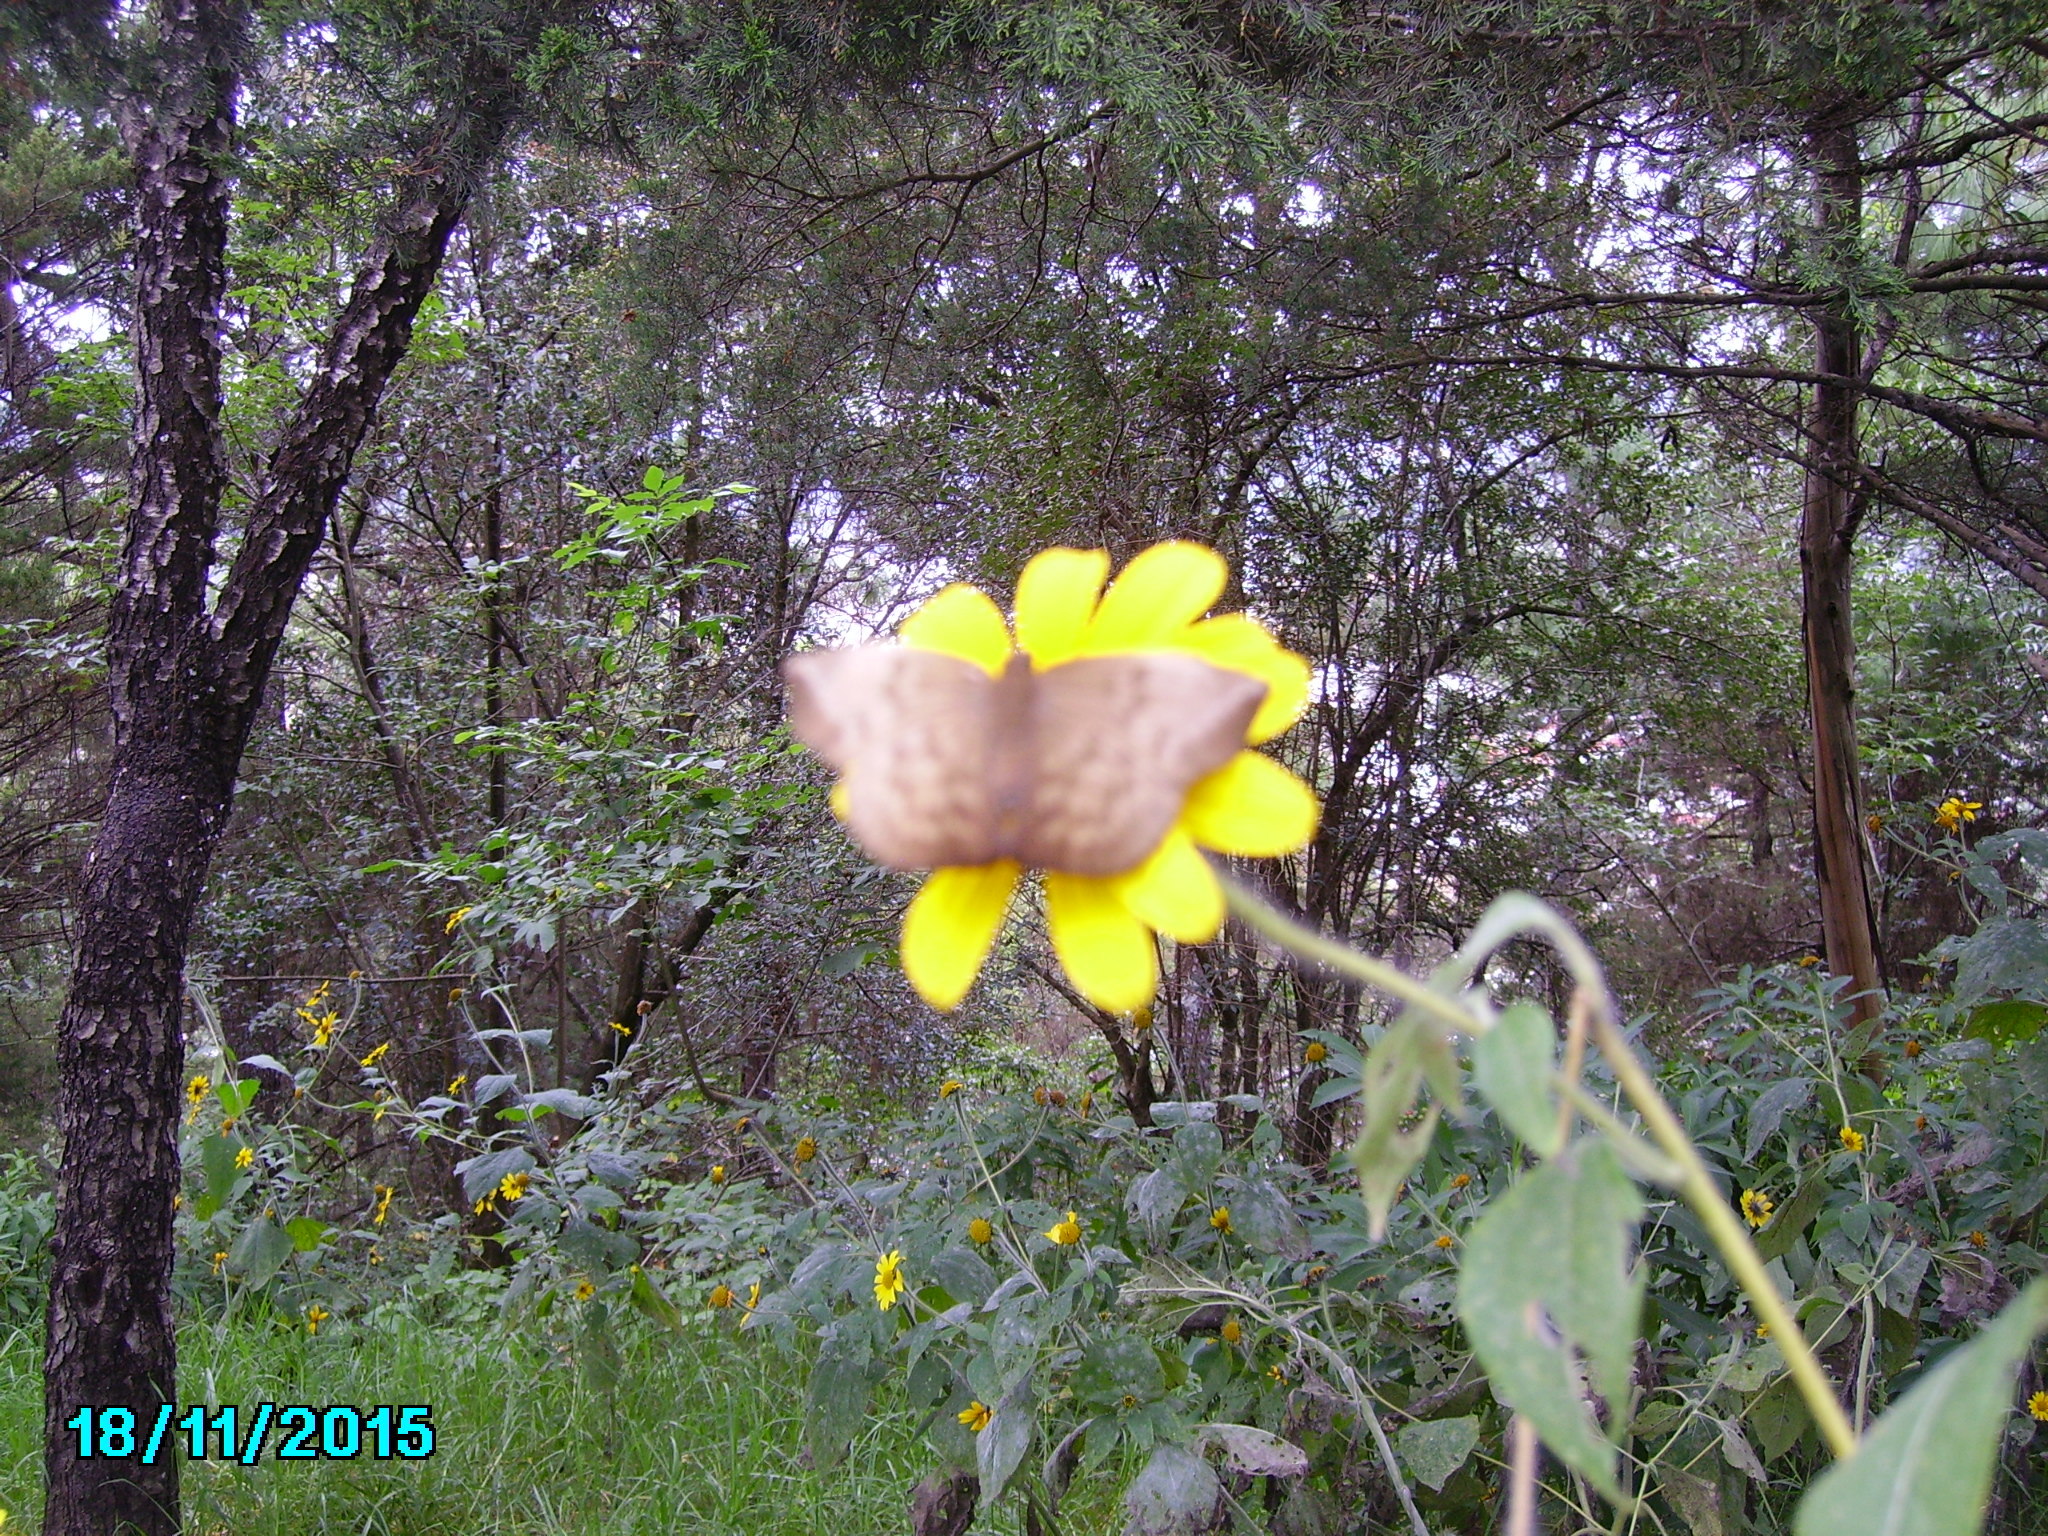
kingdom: Animalia
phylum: Arthropoda
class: Insecta
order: Lepidoptera
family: Hesperiidae
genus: Achlyodes
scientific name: Achlyodes pallida
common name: Pale sicklewing
